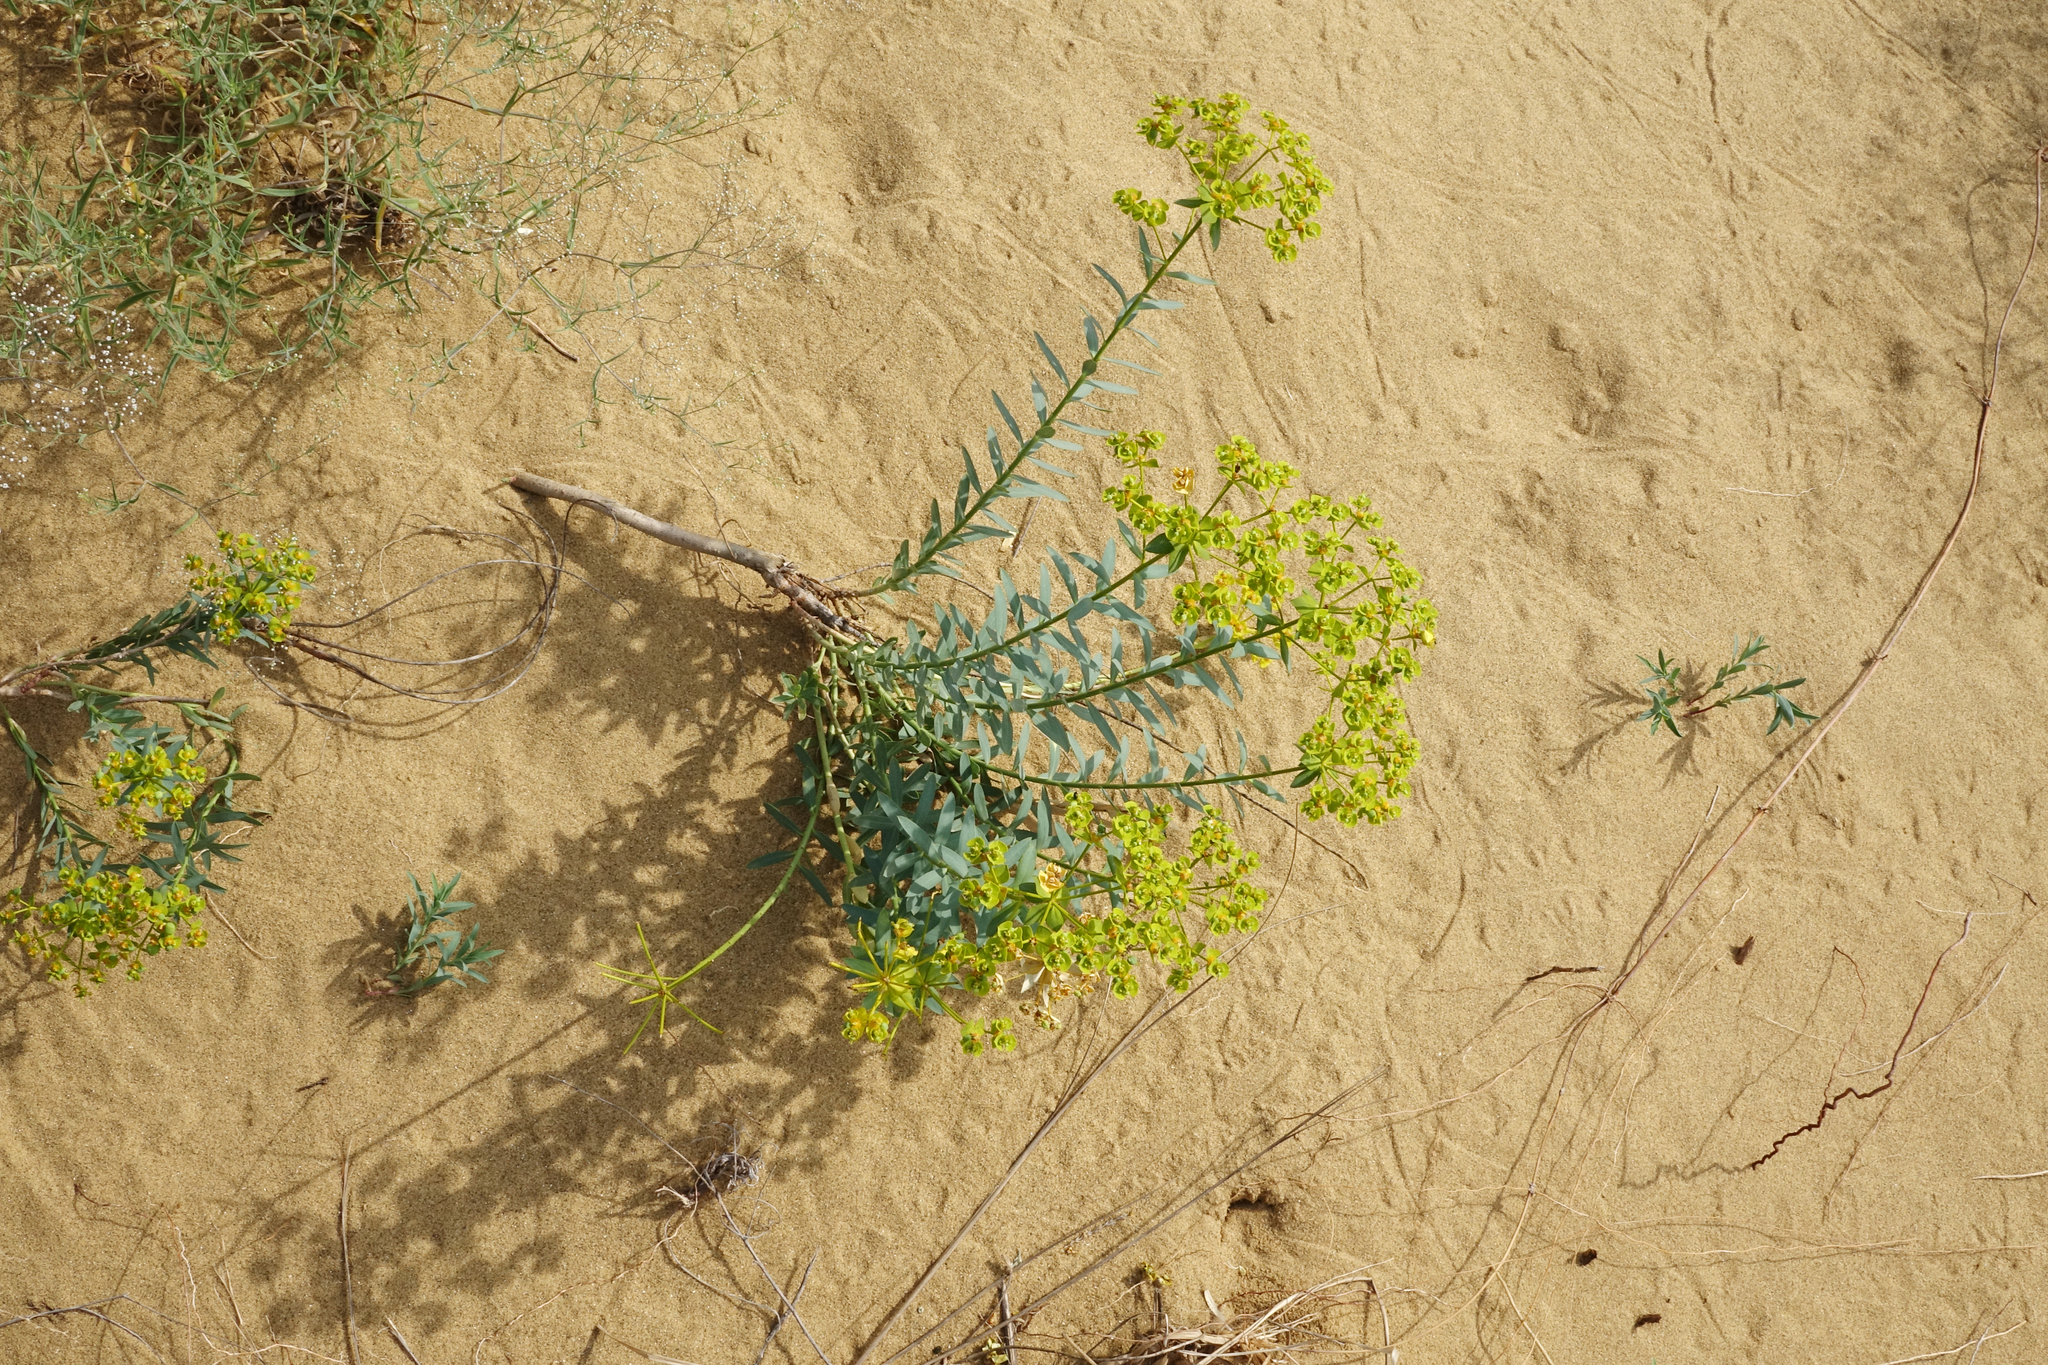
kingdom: Plantae
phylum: Tracheophyta
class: Magnoliopsida
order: Malpighiales
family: Euphorbiaceae
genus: Euphorbia
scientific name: Euphorbia seguieriana
